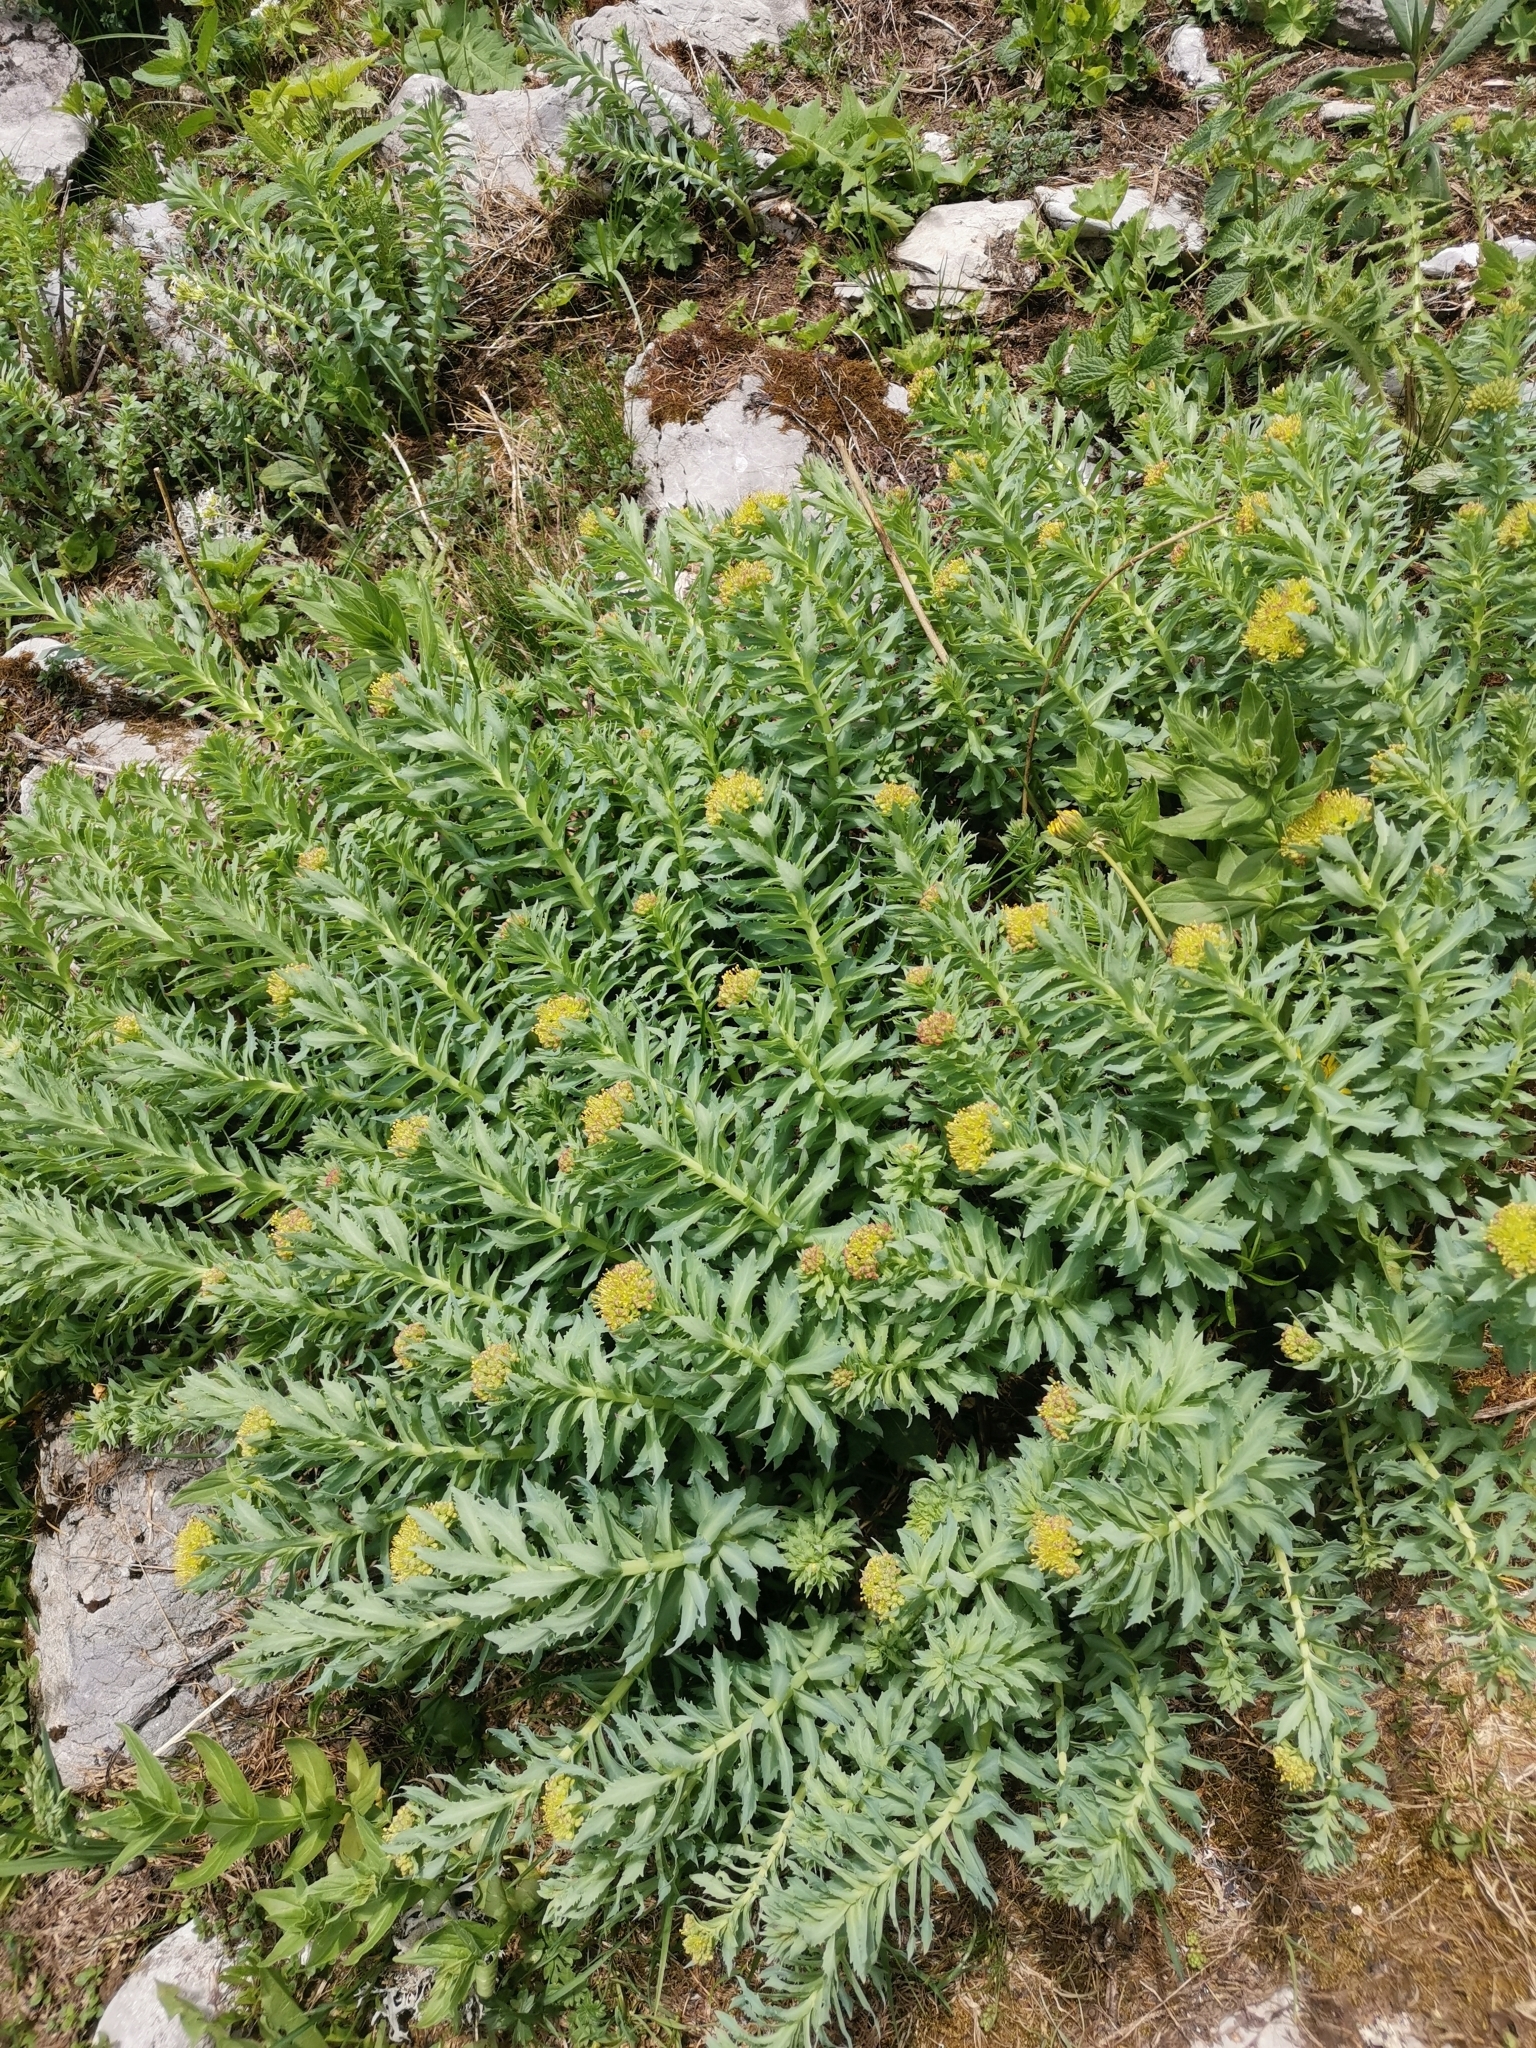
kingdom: Plantae
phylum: Tracheophyta
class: Magnoliopsida
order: Saxifragales
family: Crassulaceae
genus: Rhodiola
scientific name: Rhodiola rosea
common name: Roseroot
